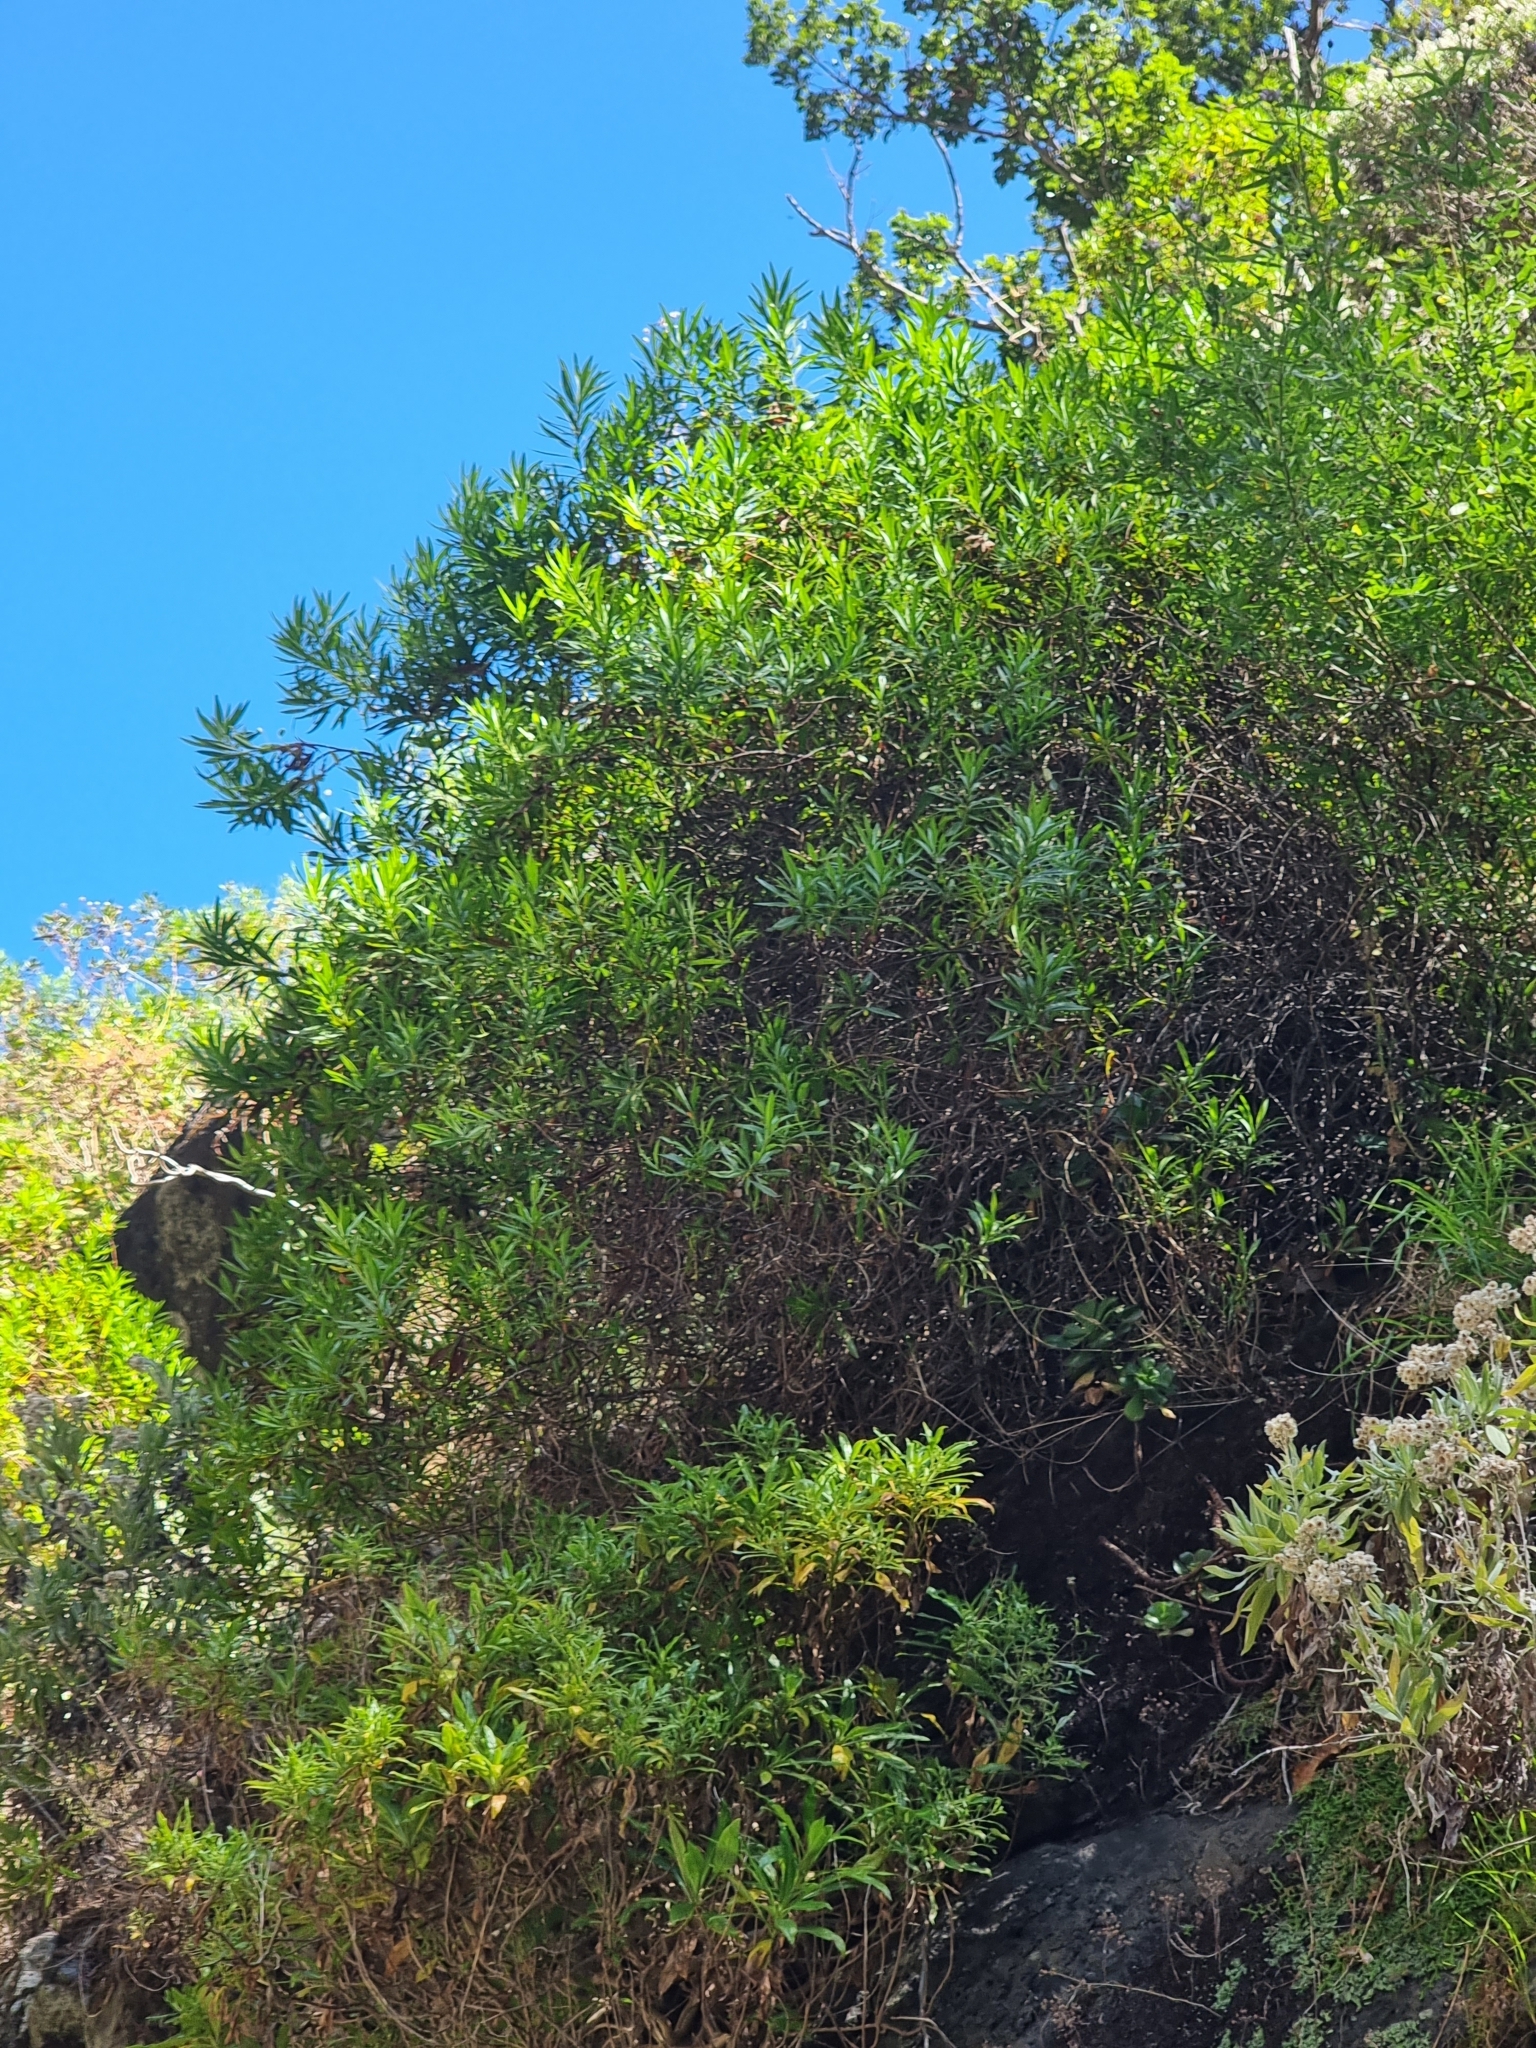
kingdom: Plantae
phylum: Tracheophyta
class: Magnoliopsida
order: Lamiales
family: Plantaginaceae
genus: Globularia
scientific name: Globularia salicina
